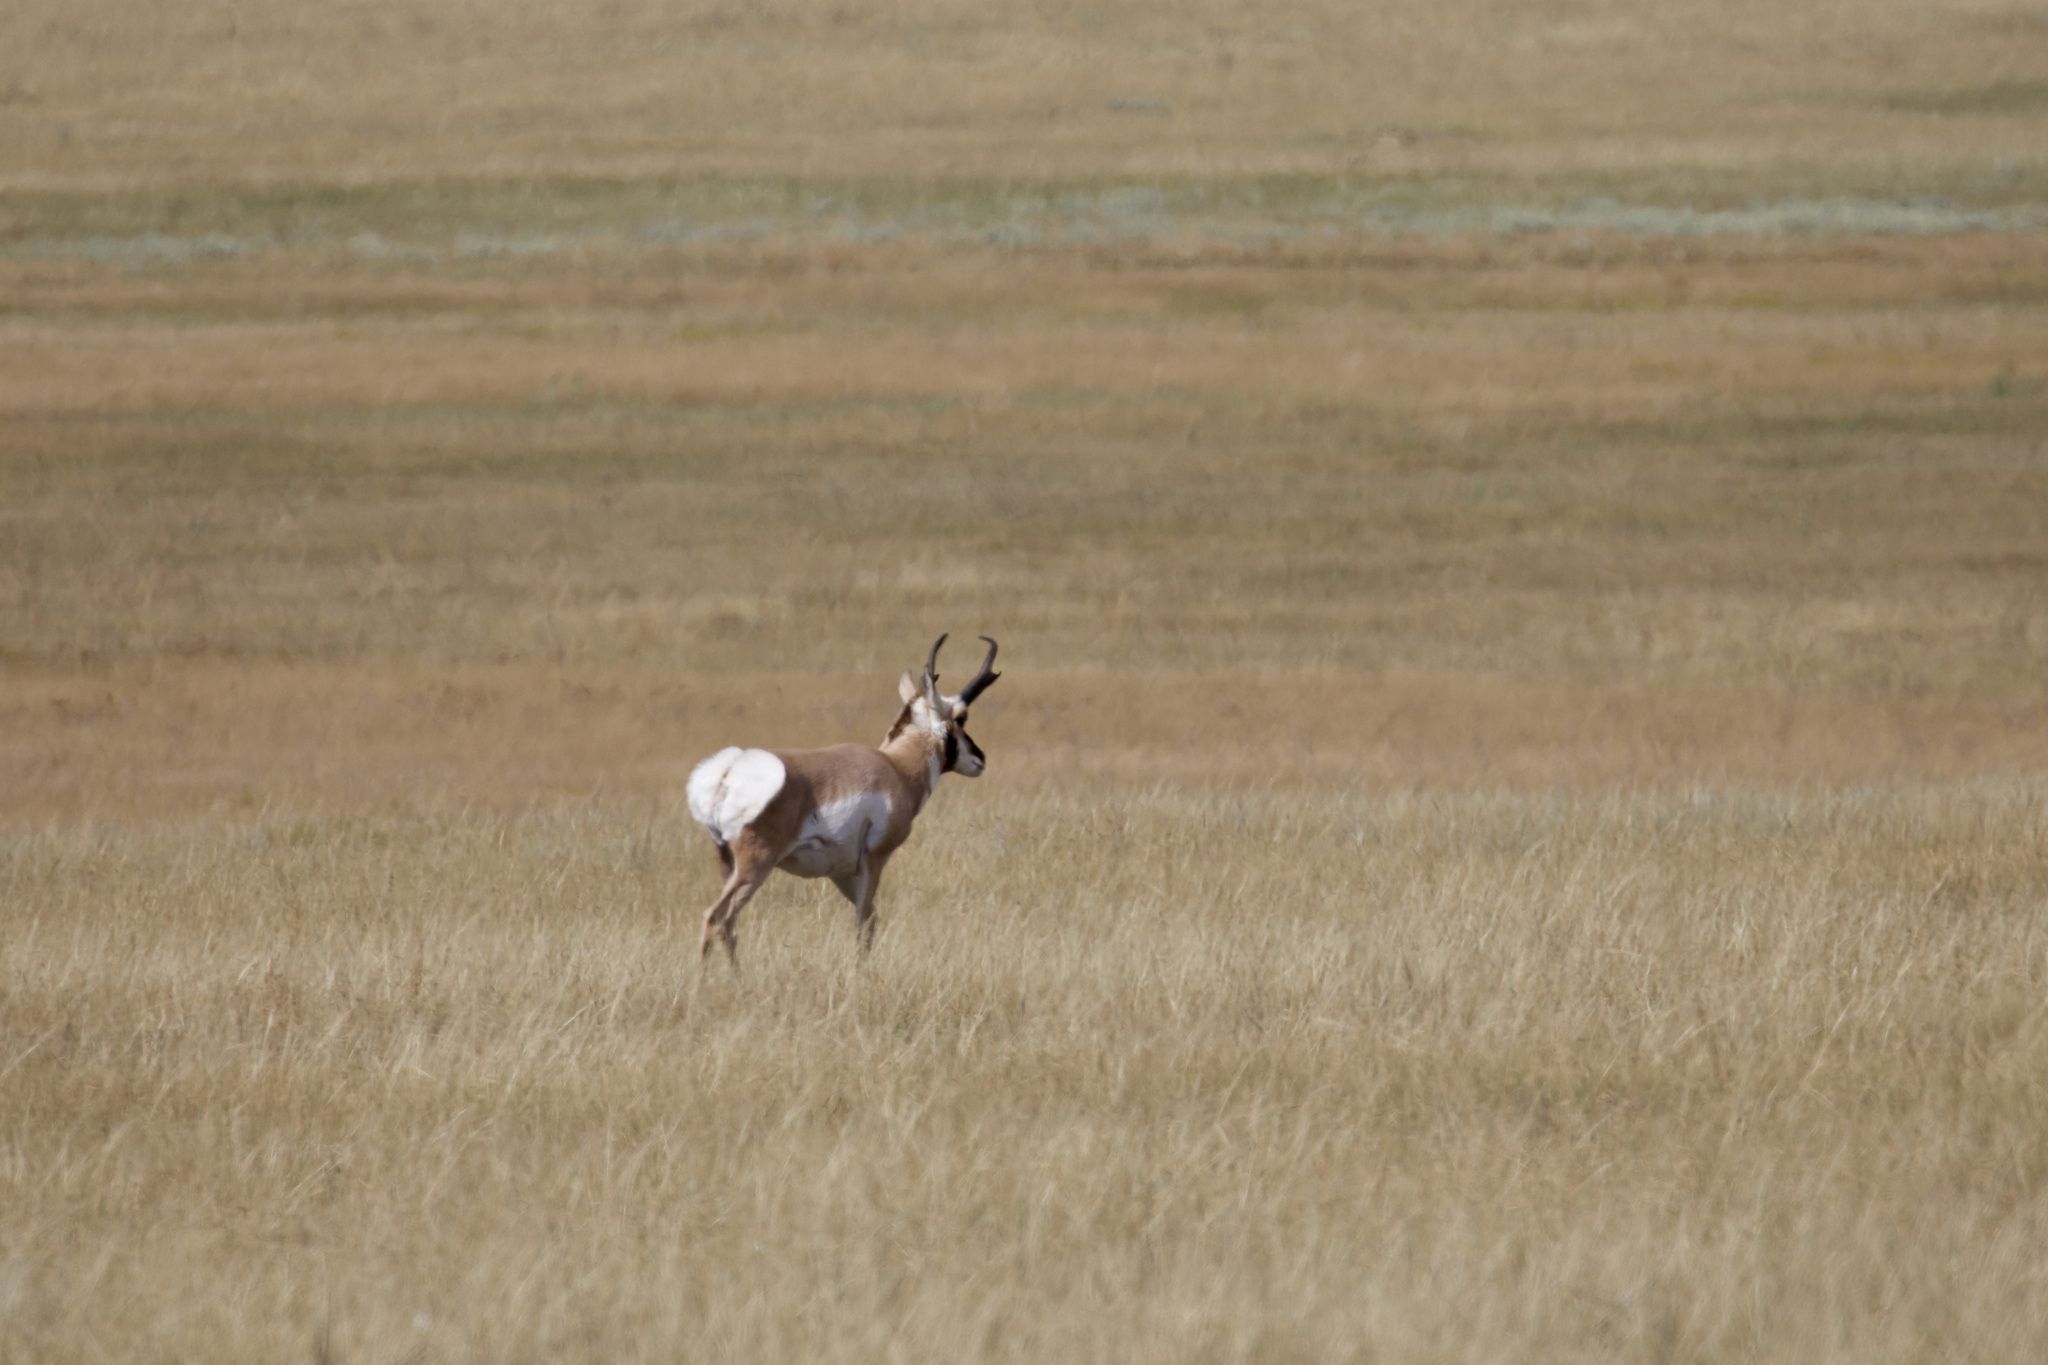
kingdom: Animalia
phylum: Chordata
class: Mammalia
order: Artiodactyla
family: Antilocapridae
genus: Antilocapra
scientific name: Antilocapra americana
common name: Pronghorn
